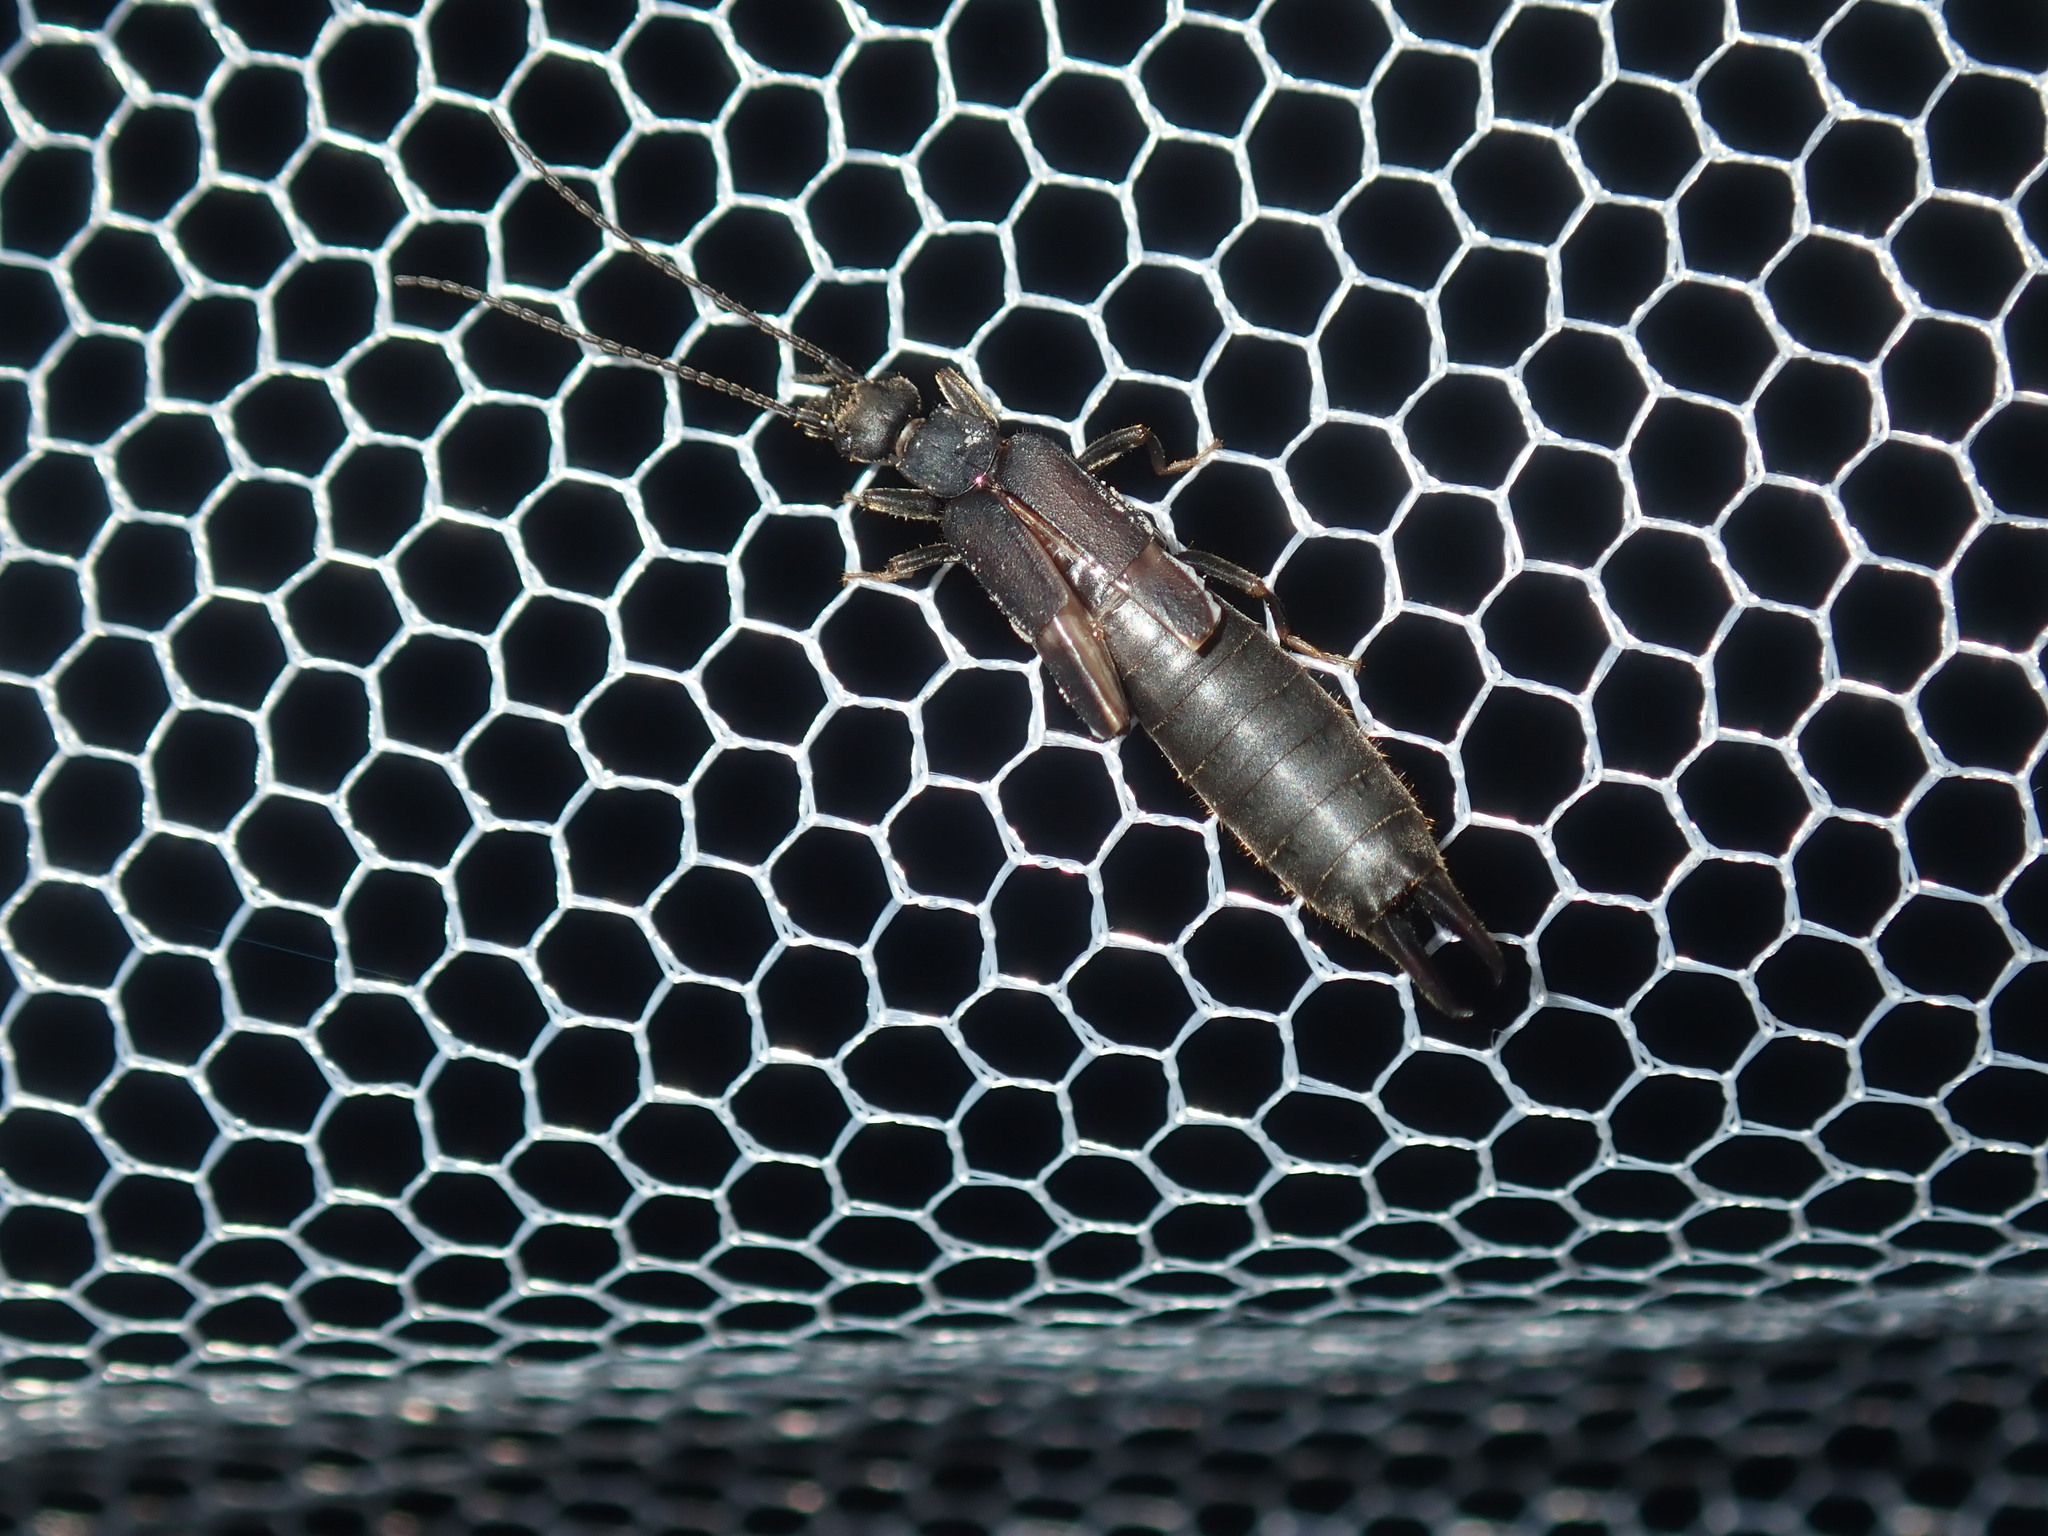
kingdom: Animalia
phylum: Arthropoda
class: Insecta
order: Dermaptera
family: Labiduridae
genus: Nala
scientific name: Nala lividipes
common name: Earwig
